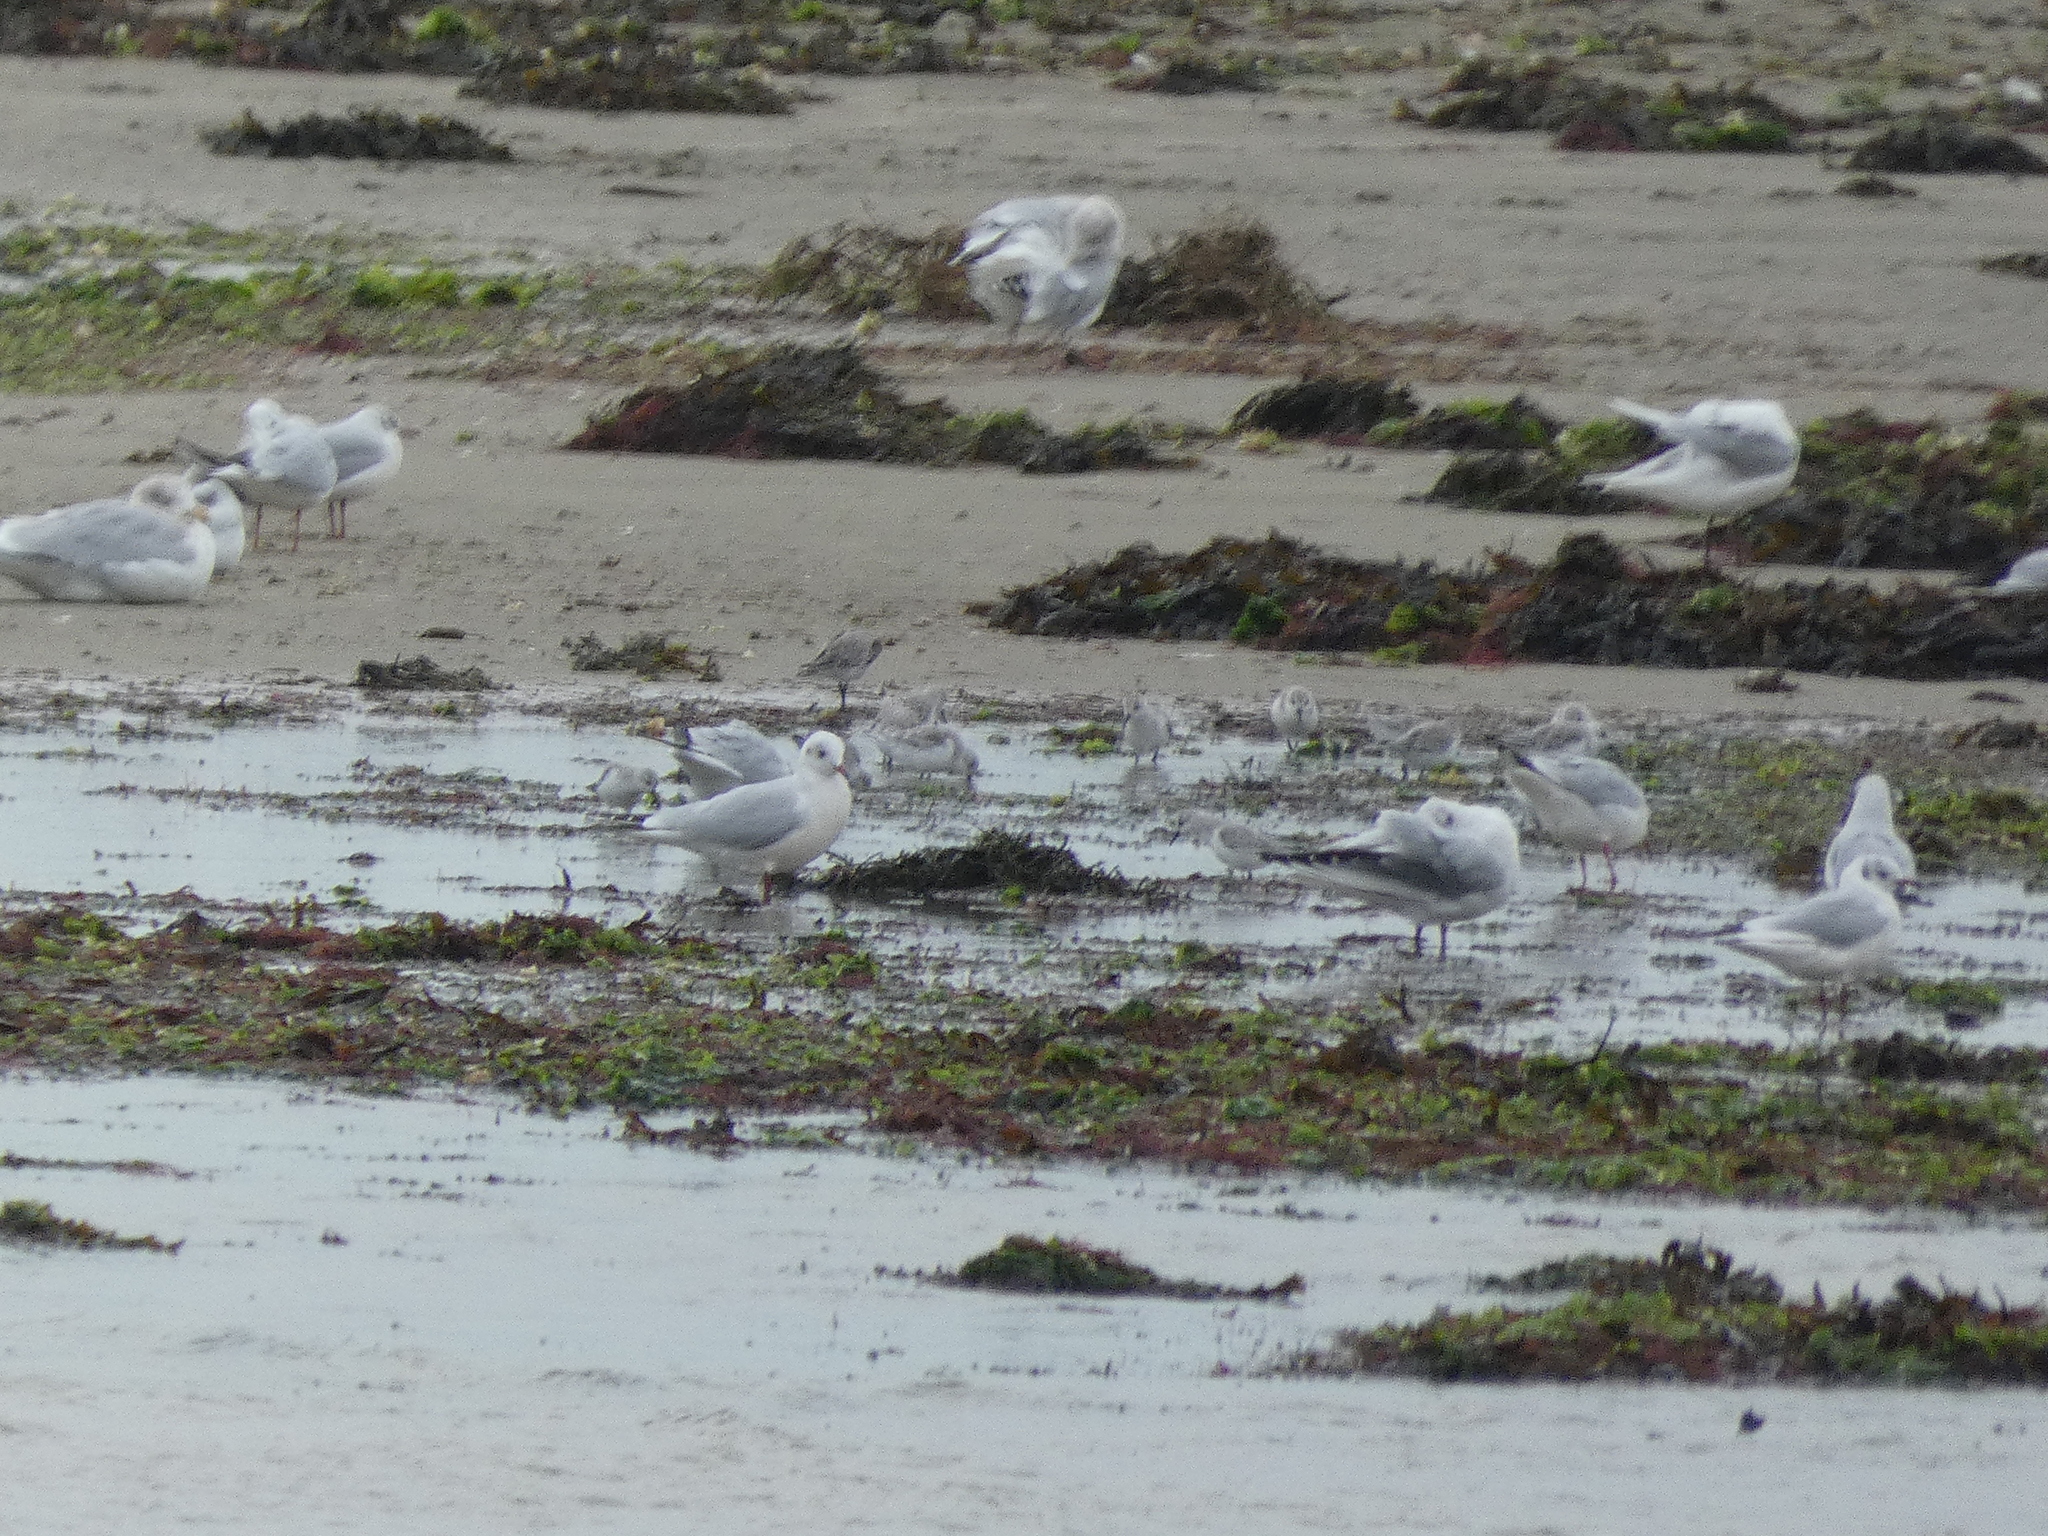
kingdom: Animalia
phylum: Chordata
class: Aves
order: Charadriiformes
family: Scolopacidae
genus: Calidris
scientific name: Calidris alba
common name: Sanderling
